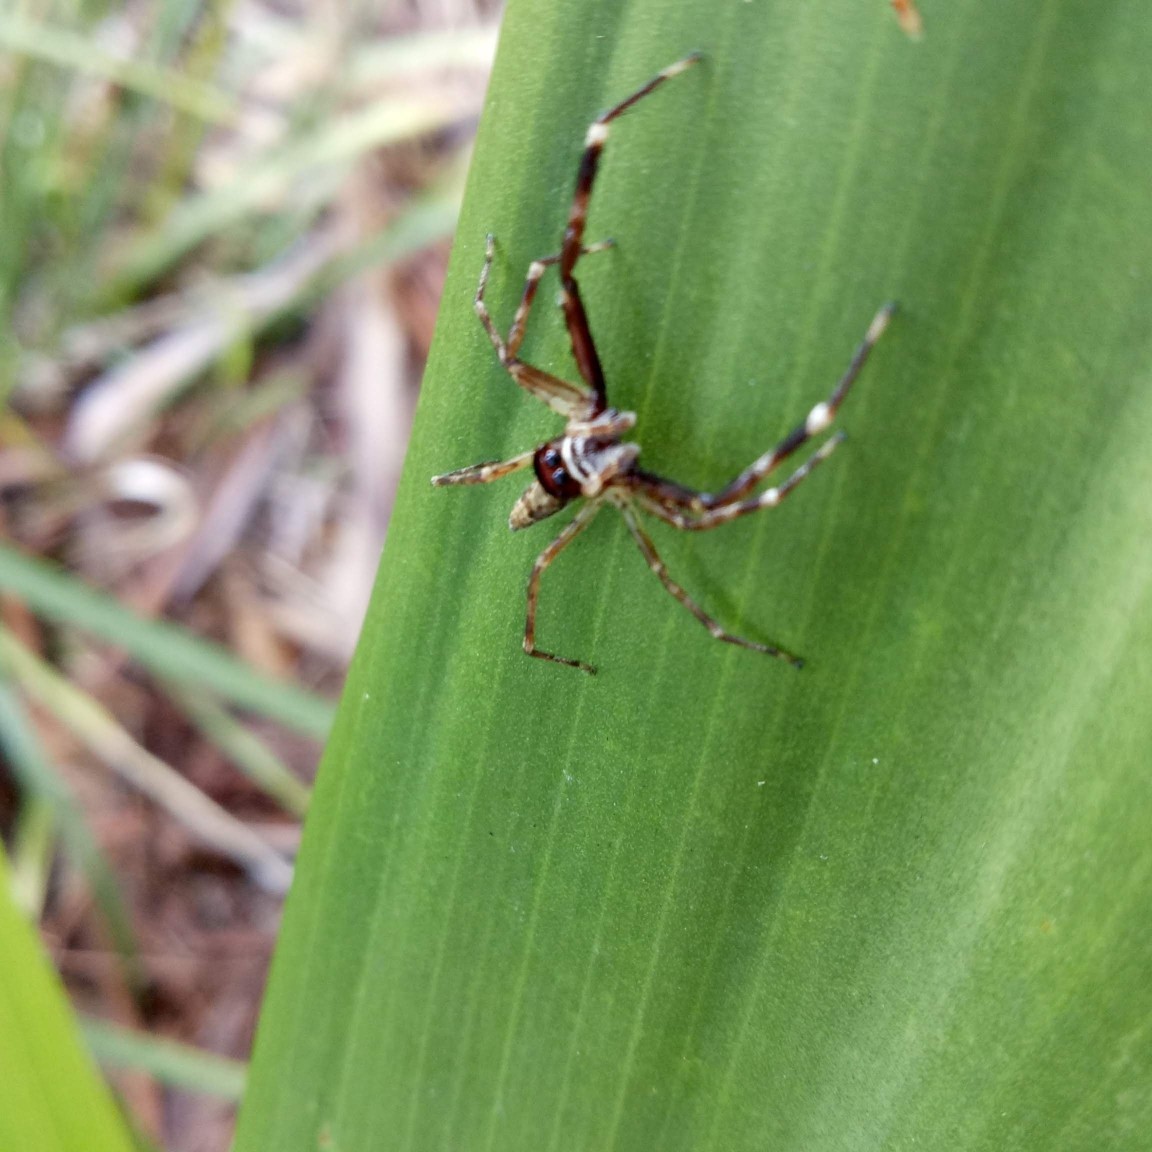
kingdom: Animalia
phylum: Arthropoda
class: Arachnida
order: Araneae
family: Salticidae
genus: Helpis
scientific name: Helpis minitabunda
